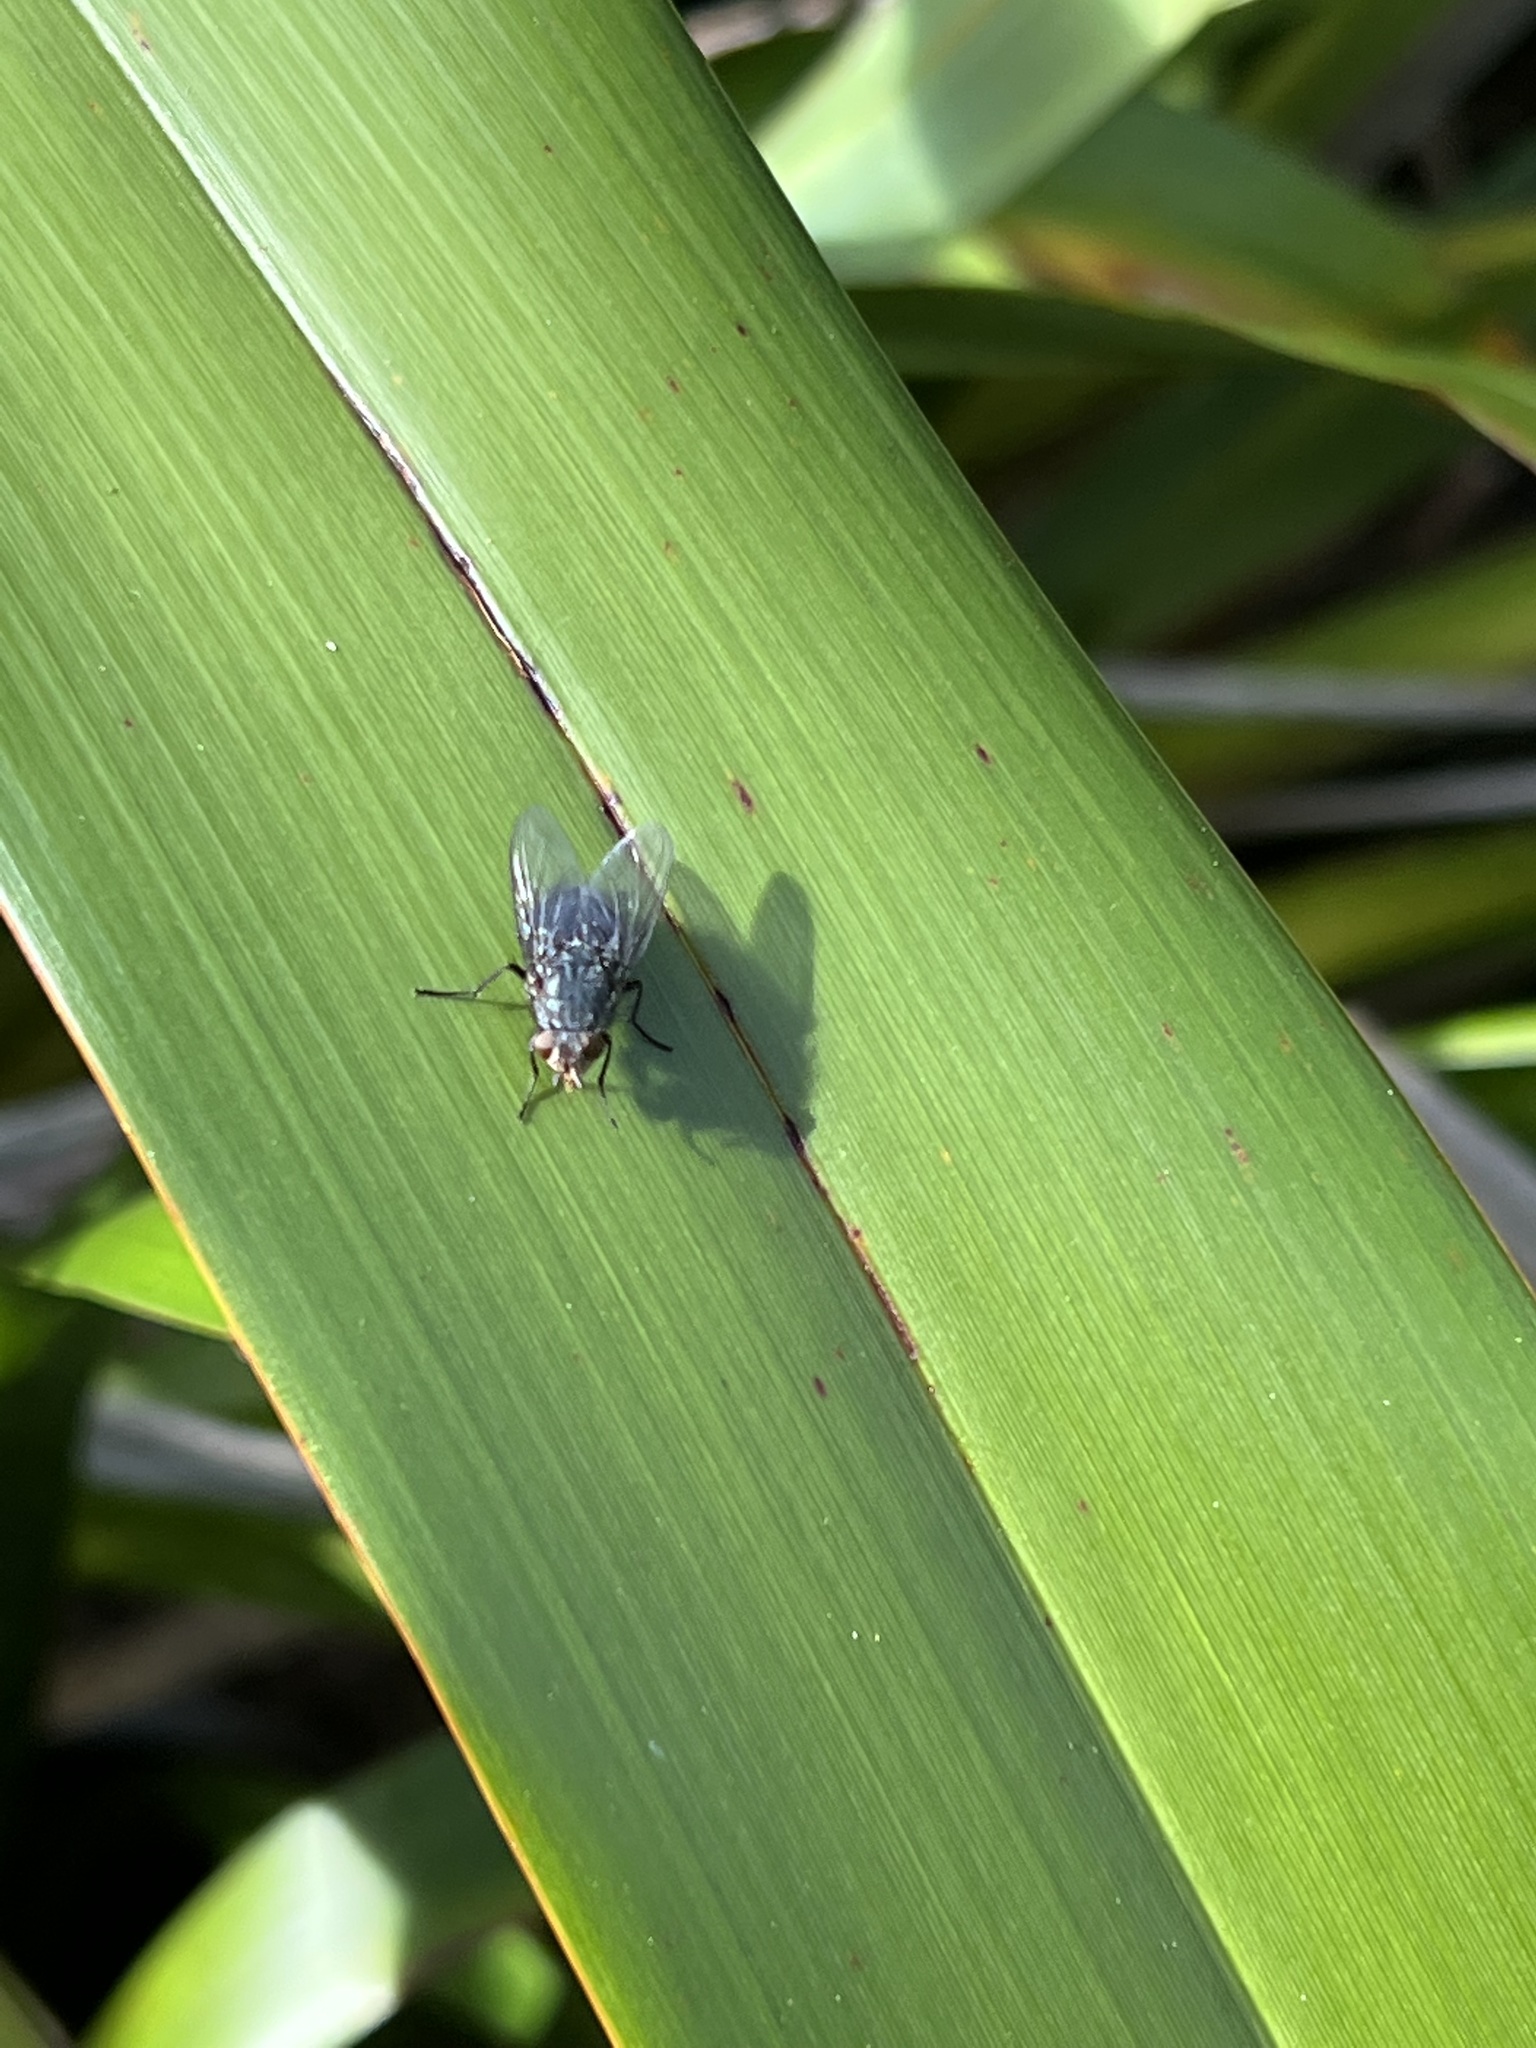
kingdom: Animalia
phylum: Arthropoda
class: Insecta
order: Diptera
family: Calliphoridae
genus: Calliphora
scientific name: Calliphora vicina
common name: Common blow flie
